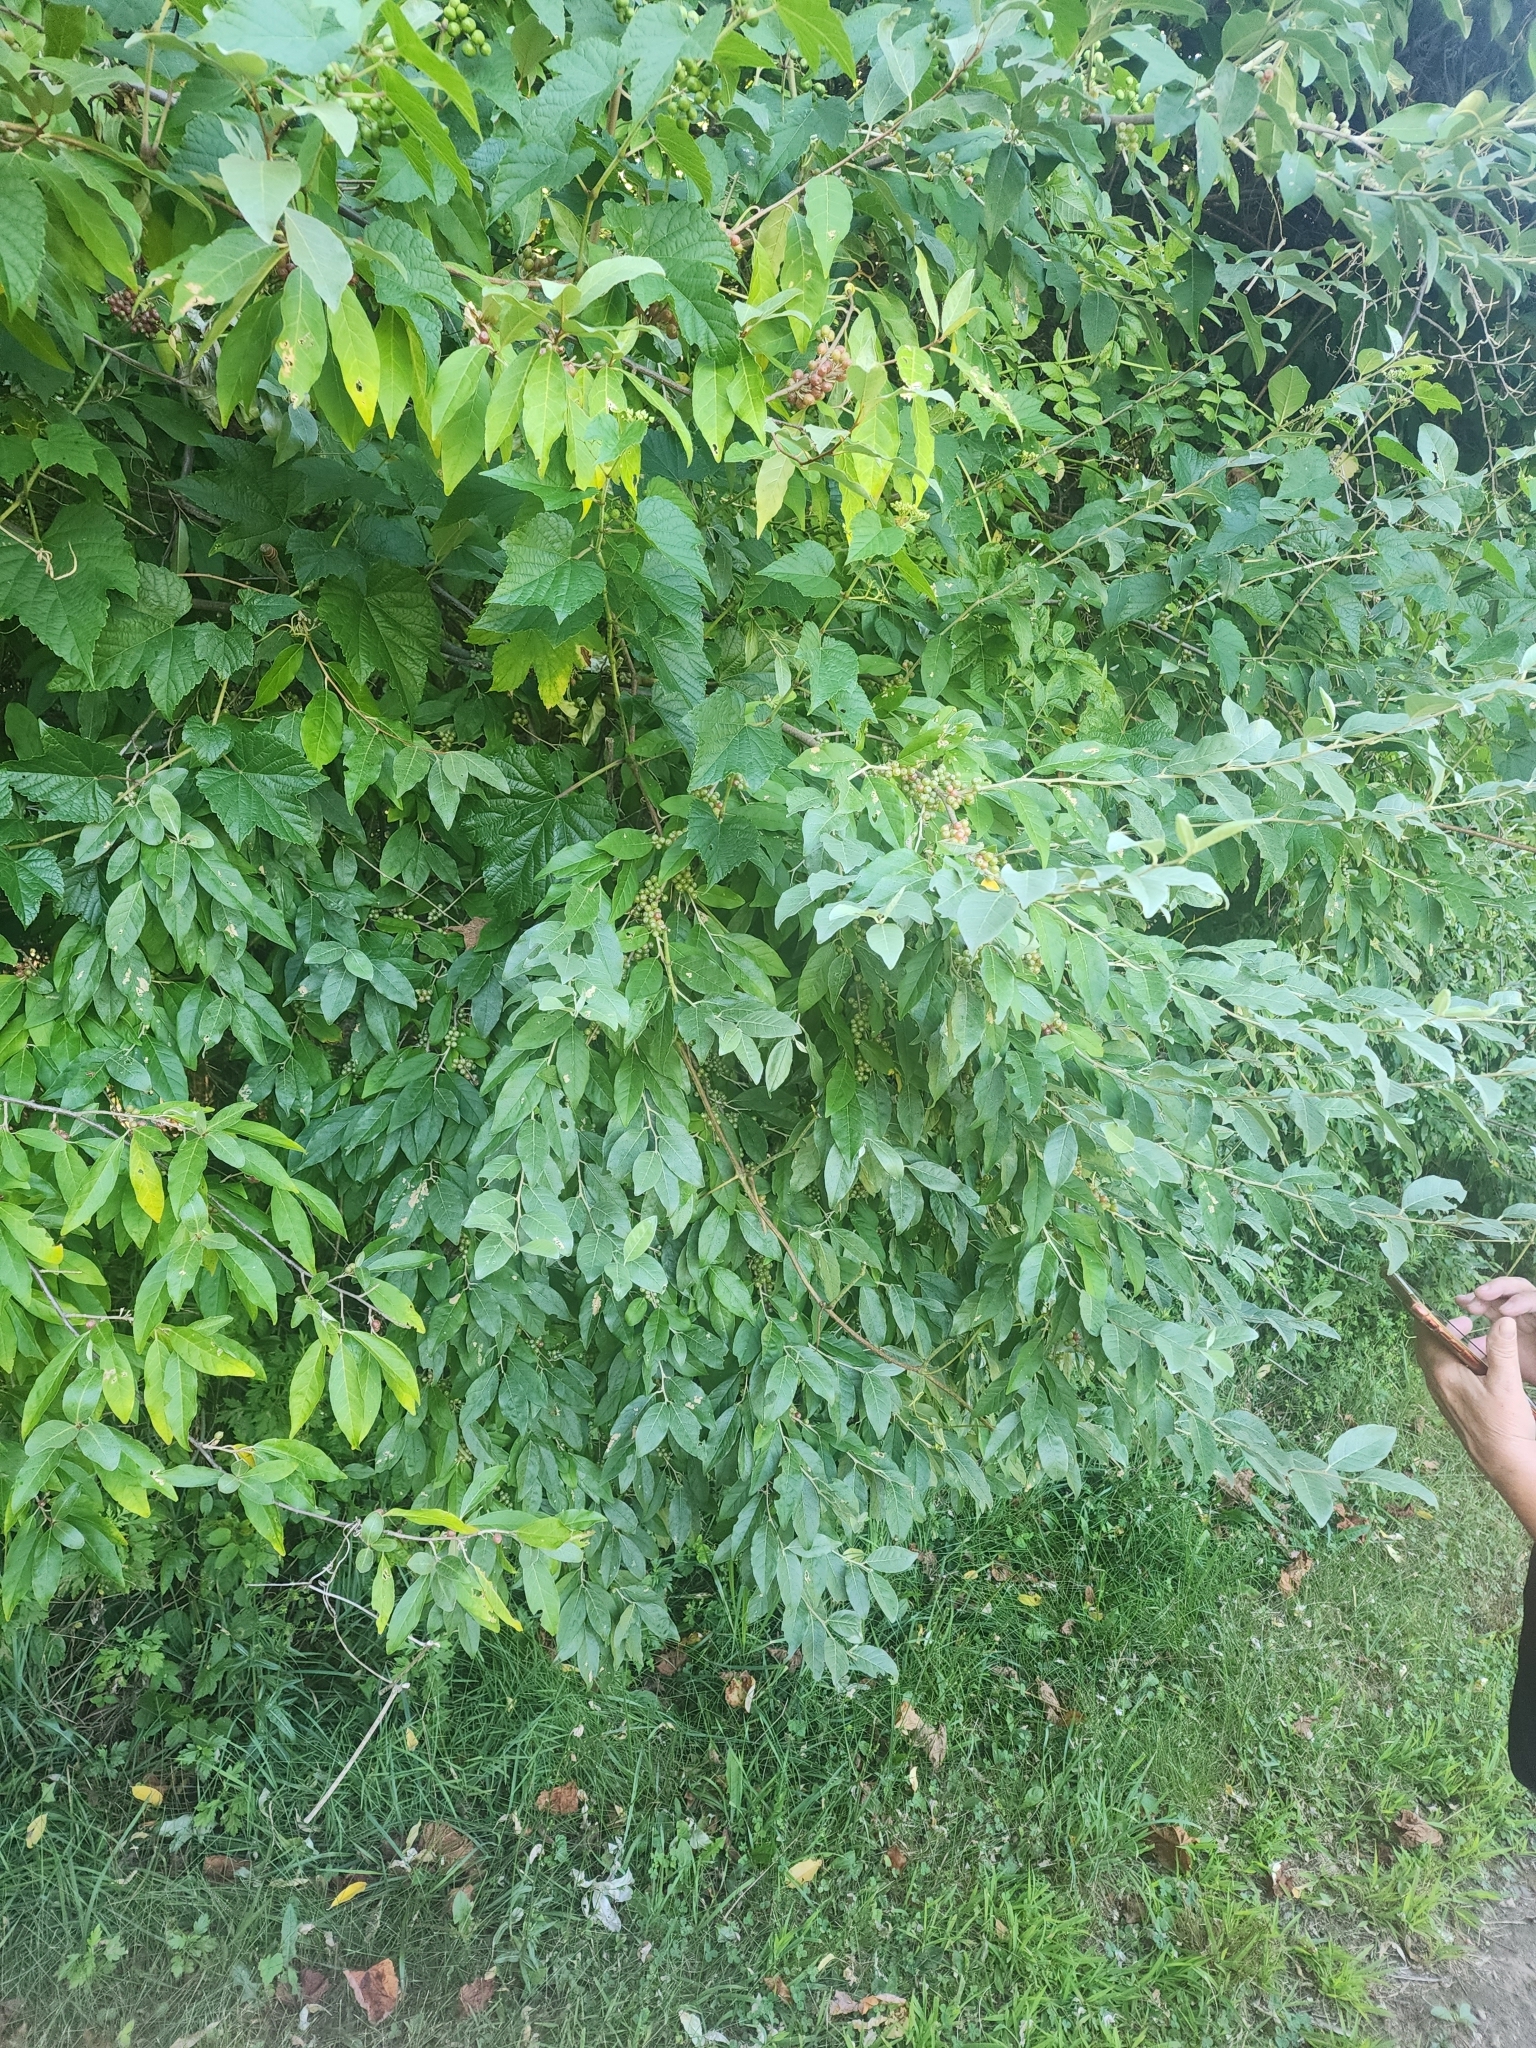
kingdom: Plantae
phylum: Tracheophyta
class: Magnoliopsida
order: Rosales
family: Elaeagnaceae
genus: Elaeagnus
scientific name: Elaeagnus umbellata
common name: Autumn olive
